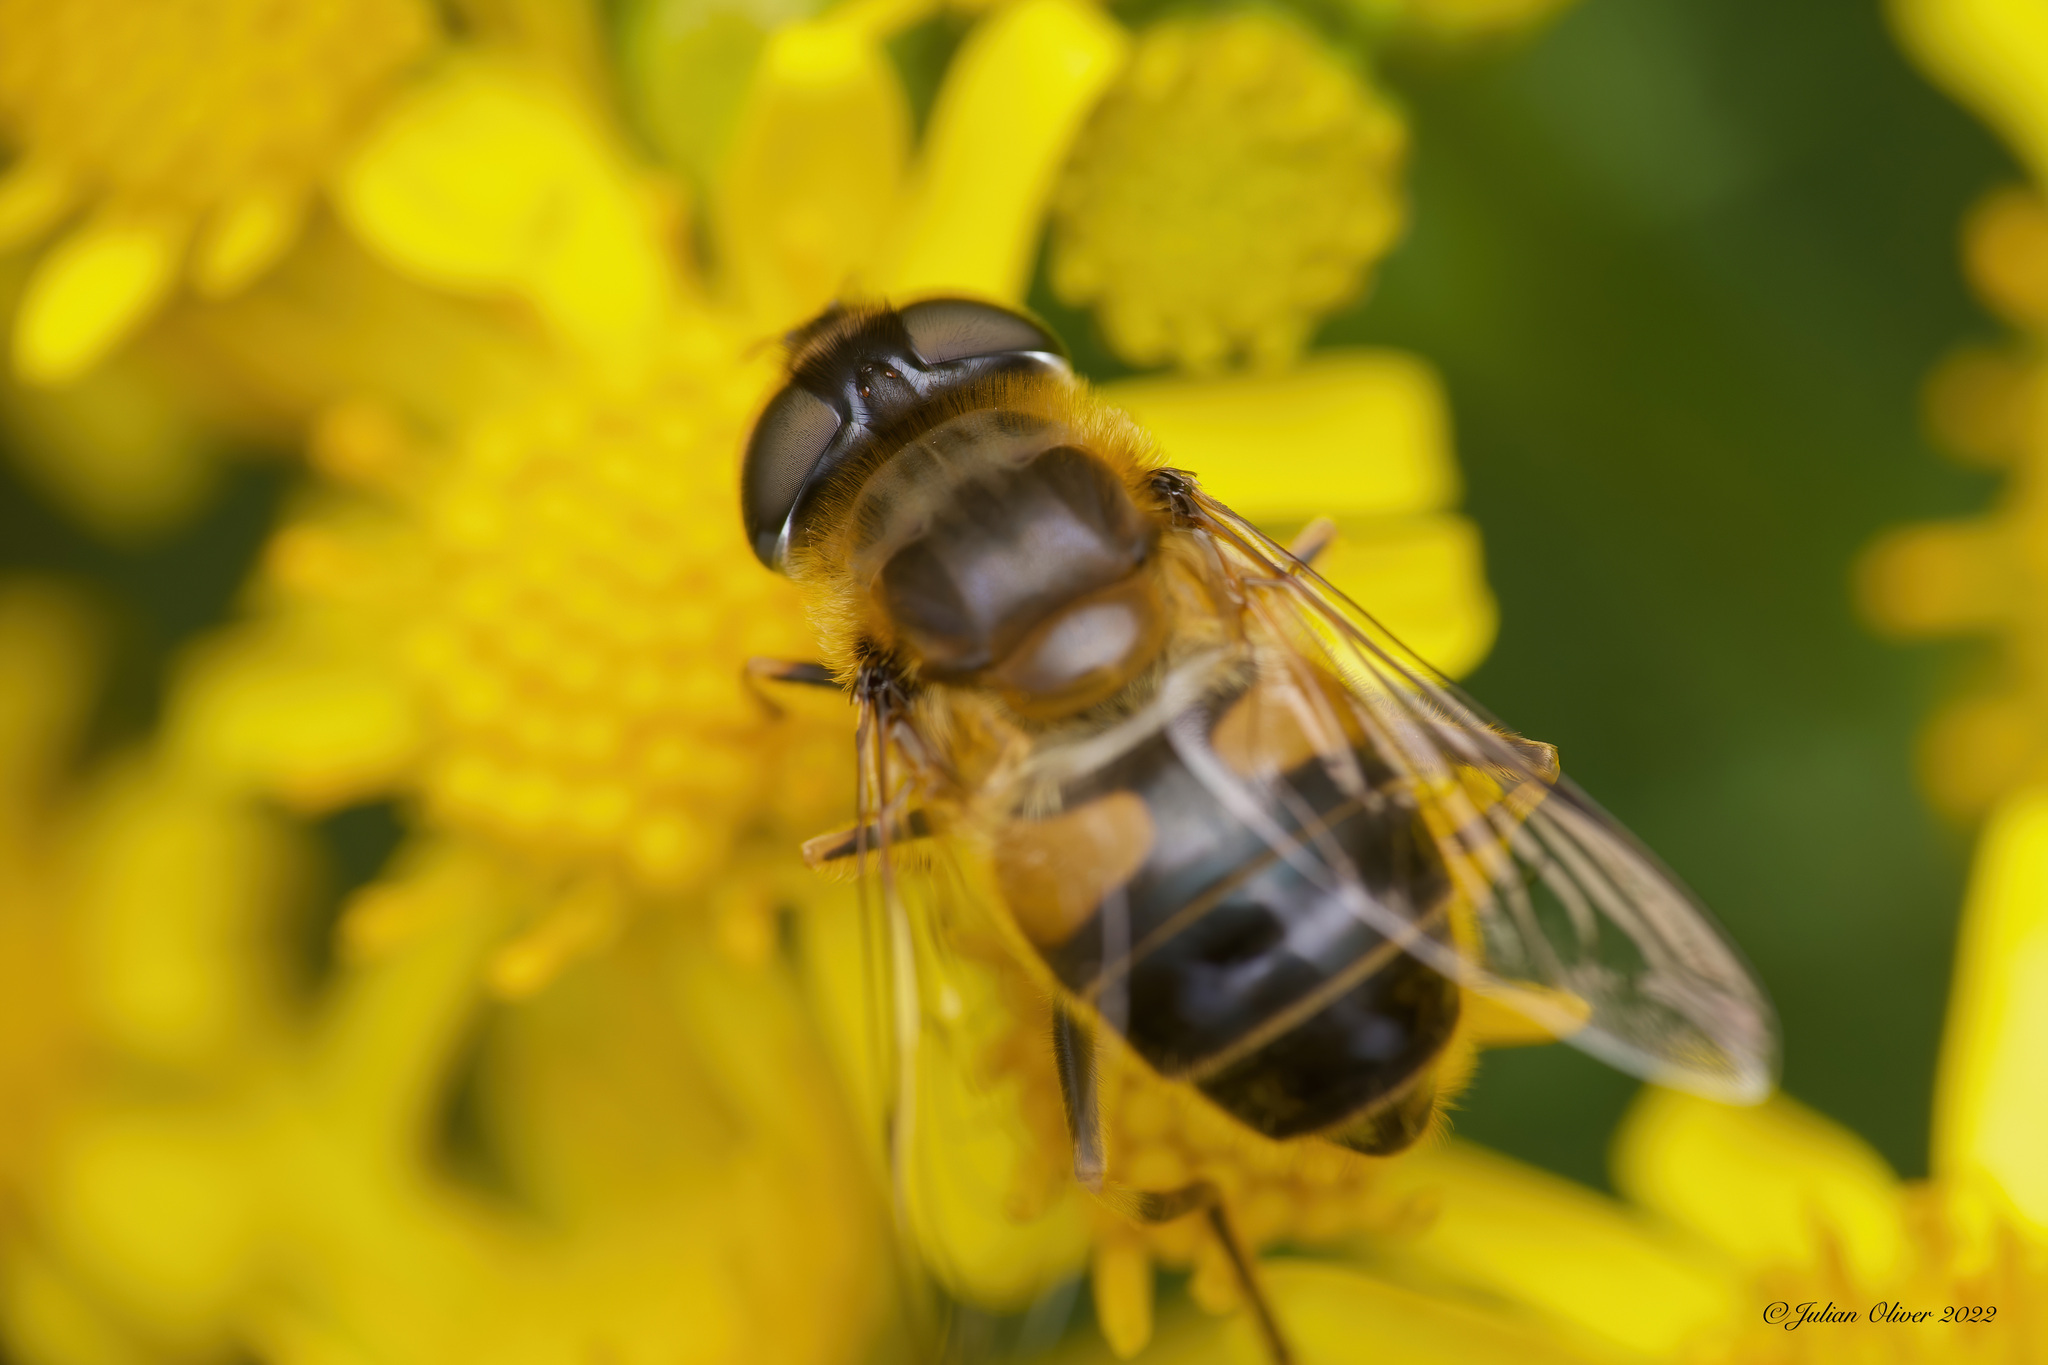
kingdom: Animalia
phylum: Arthropoda
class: Insecta
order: Diptera
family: Syrphidae
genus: Eristalis
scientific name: Eristalis pertinax
